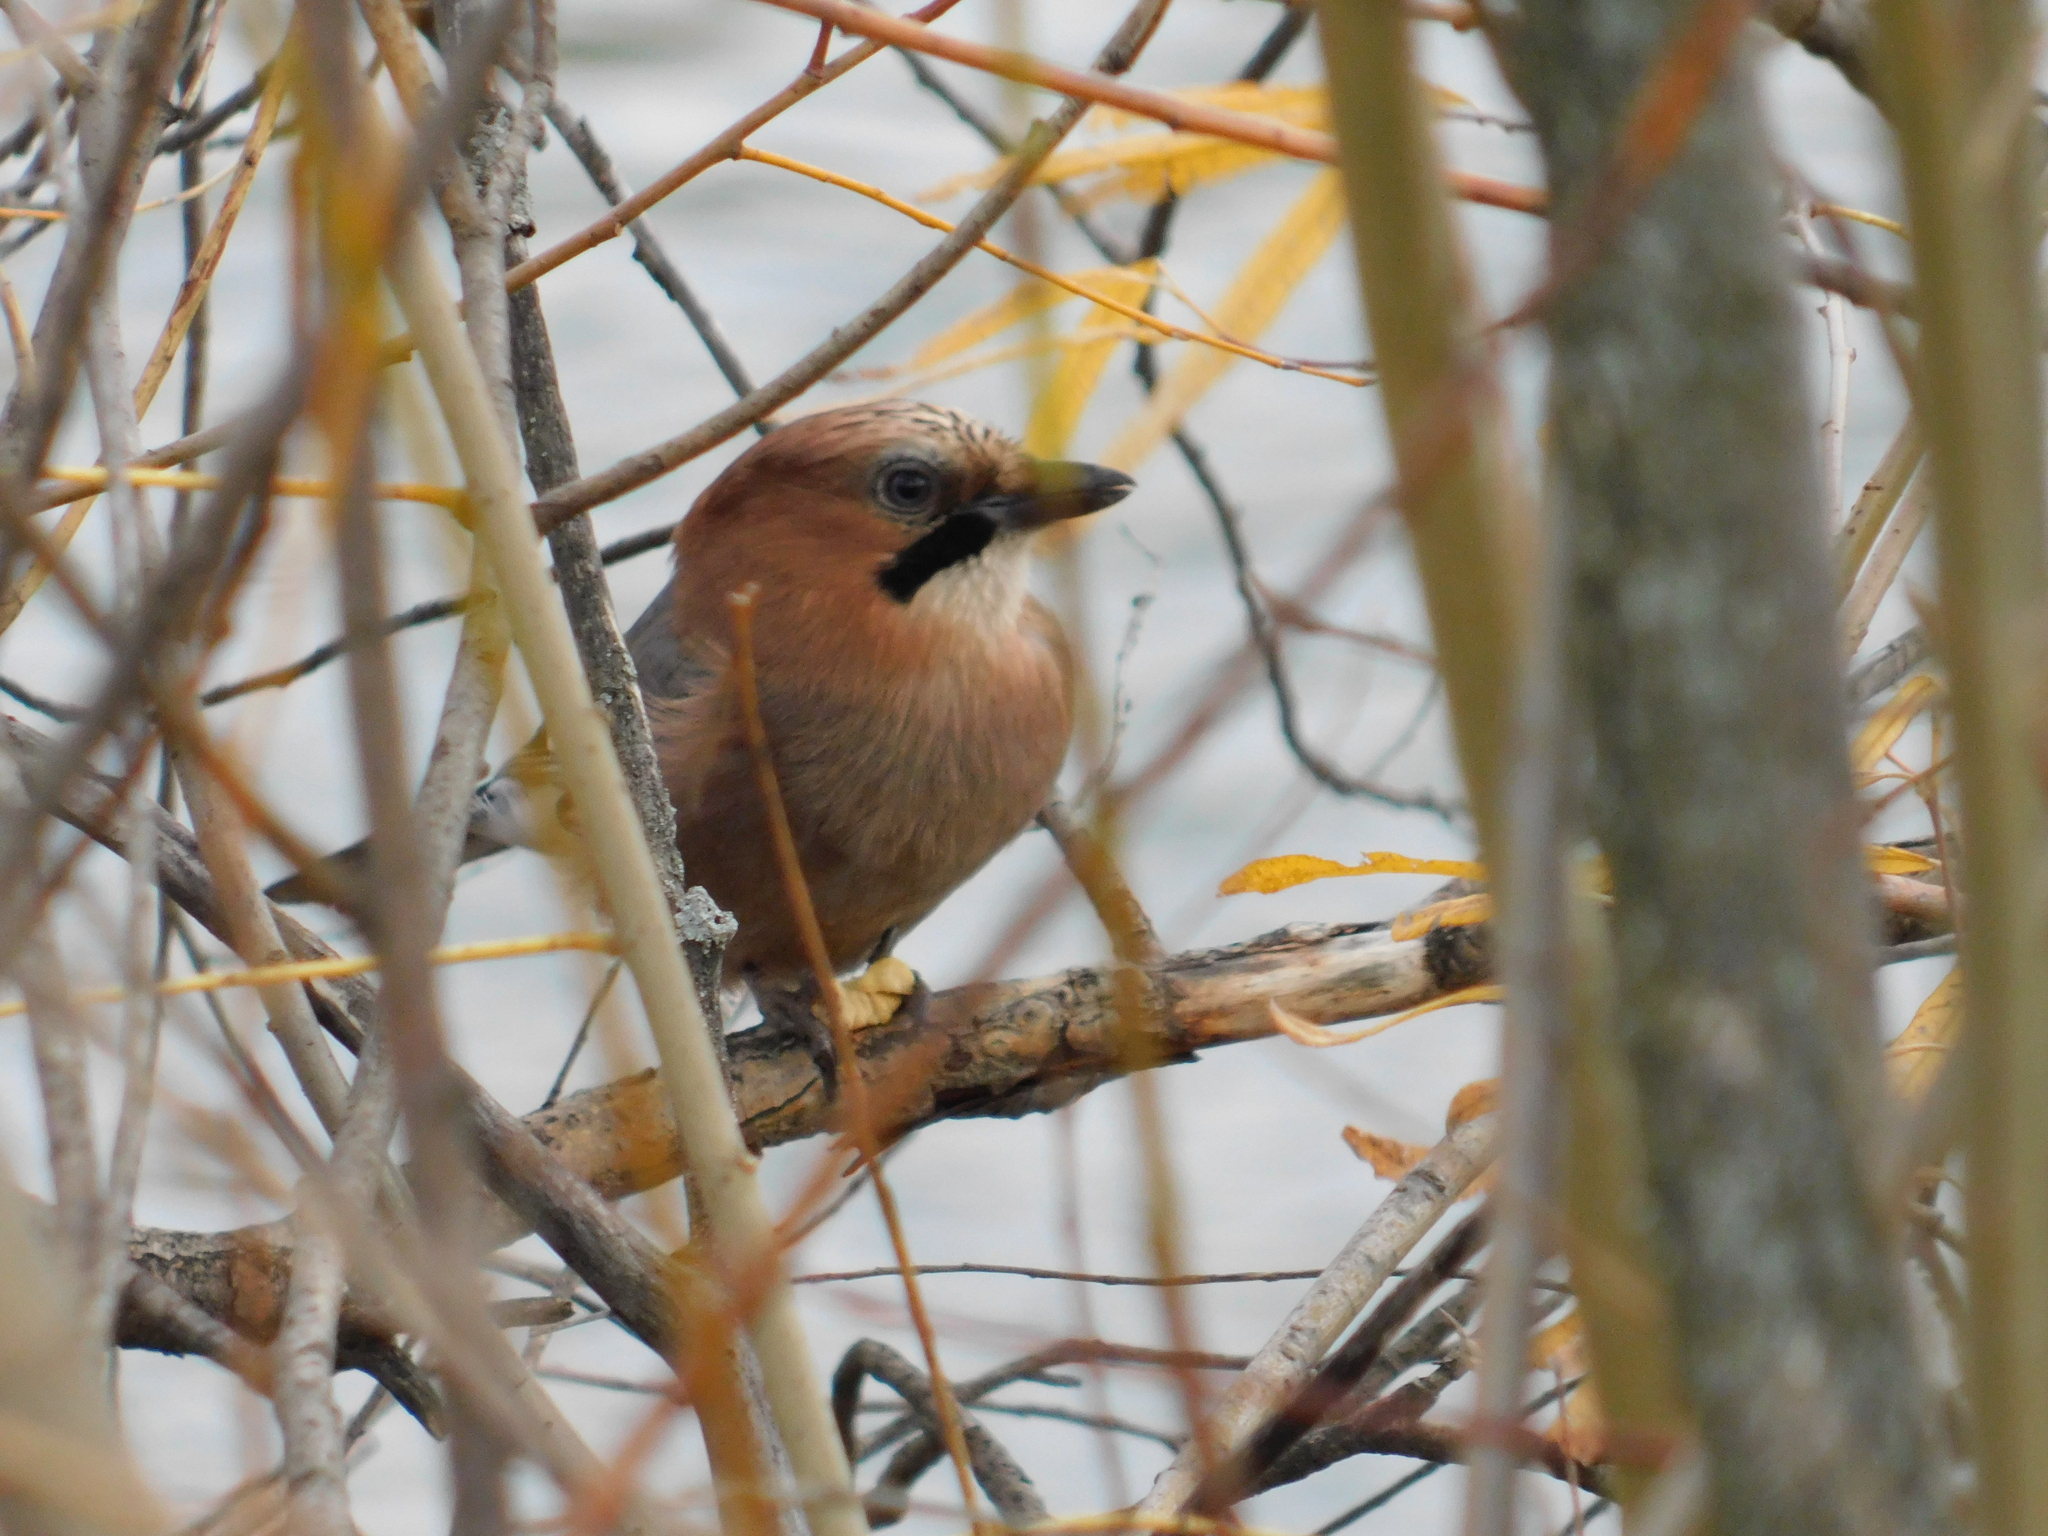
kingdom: Animalia
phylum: Chordata
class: Aves
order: Passeriformes
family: Corvidae
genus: Garrulus
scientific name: Garrulus glandarius
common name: Eurasian jay
